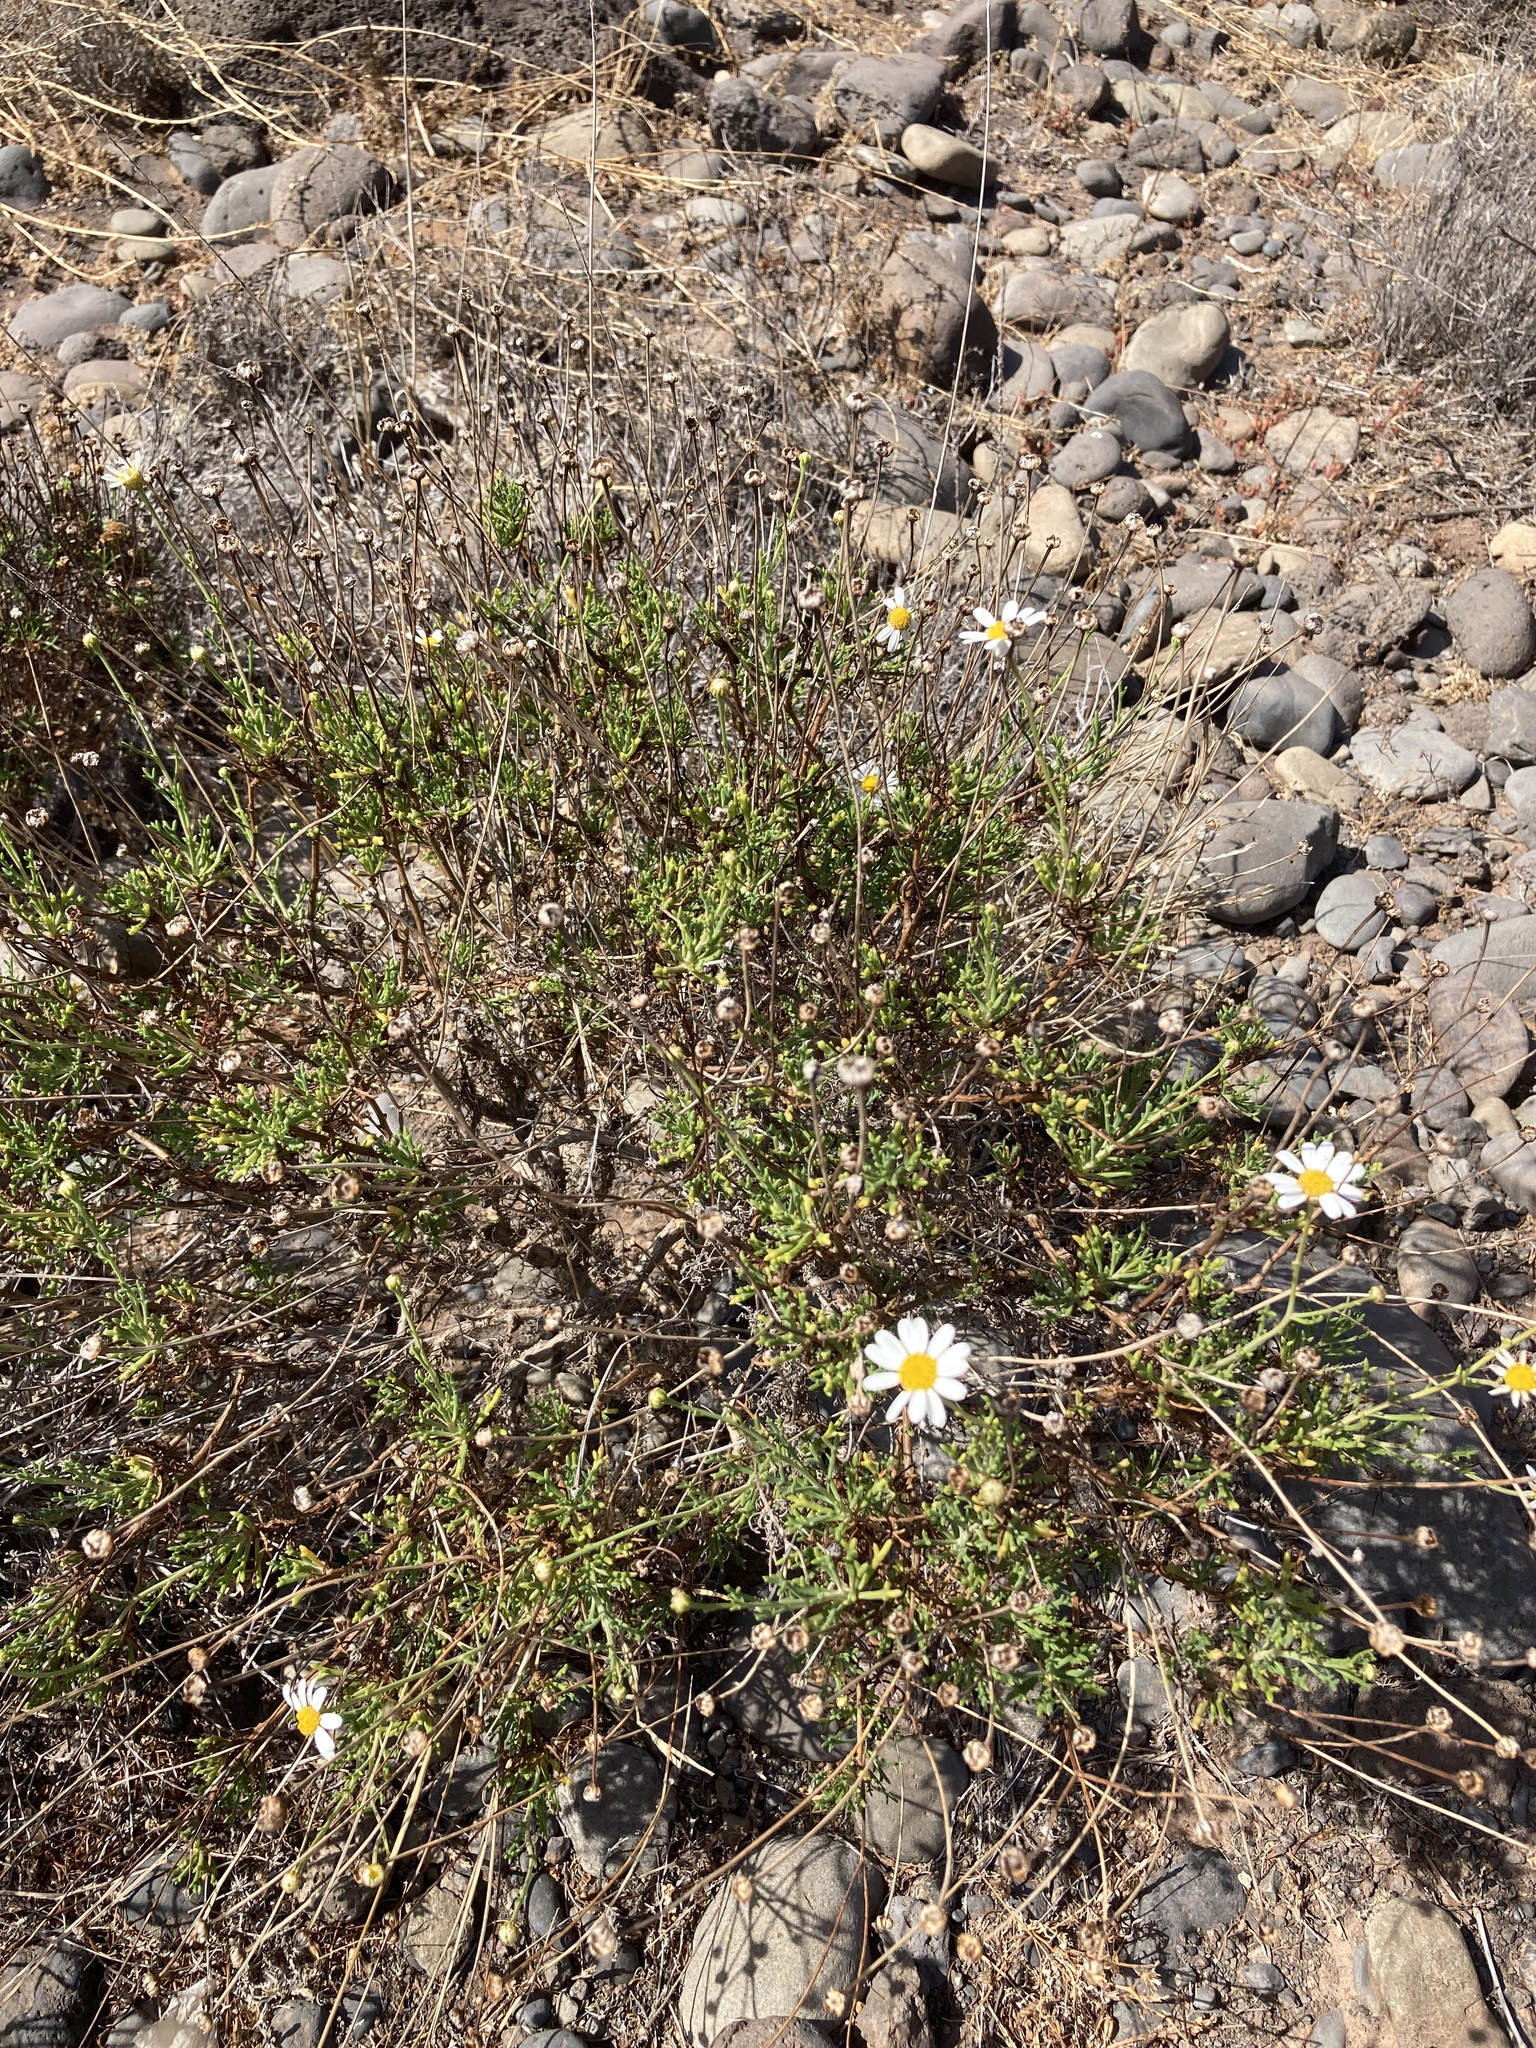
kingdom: Plantae
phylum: Tracheophyta
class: Magnoliopsida
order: Asterales
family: Asteraceae
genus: Argyranthemum
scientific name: Argyranthemum frutescens
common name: Paris daisy
